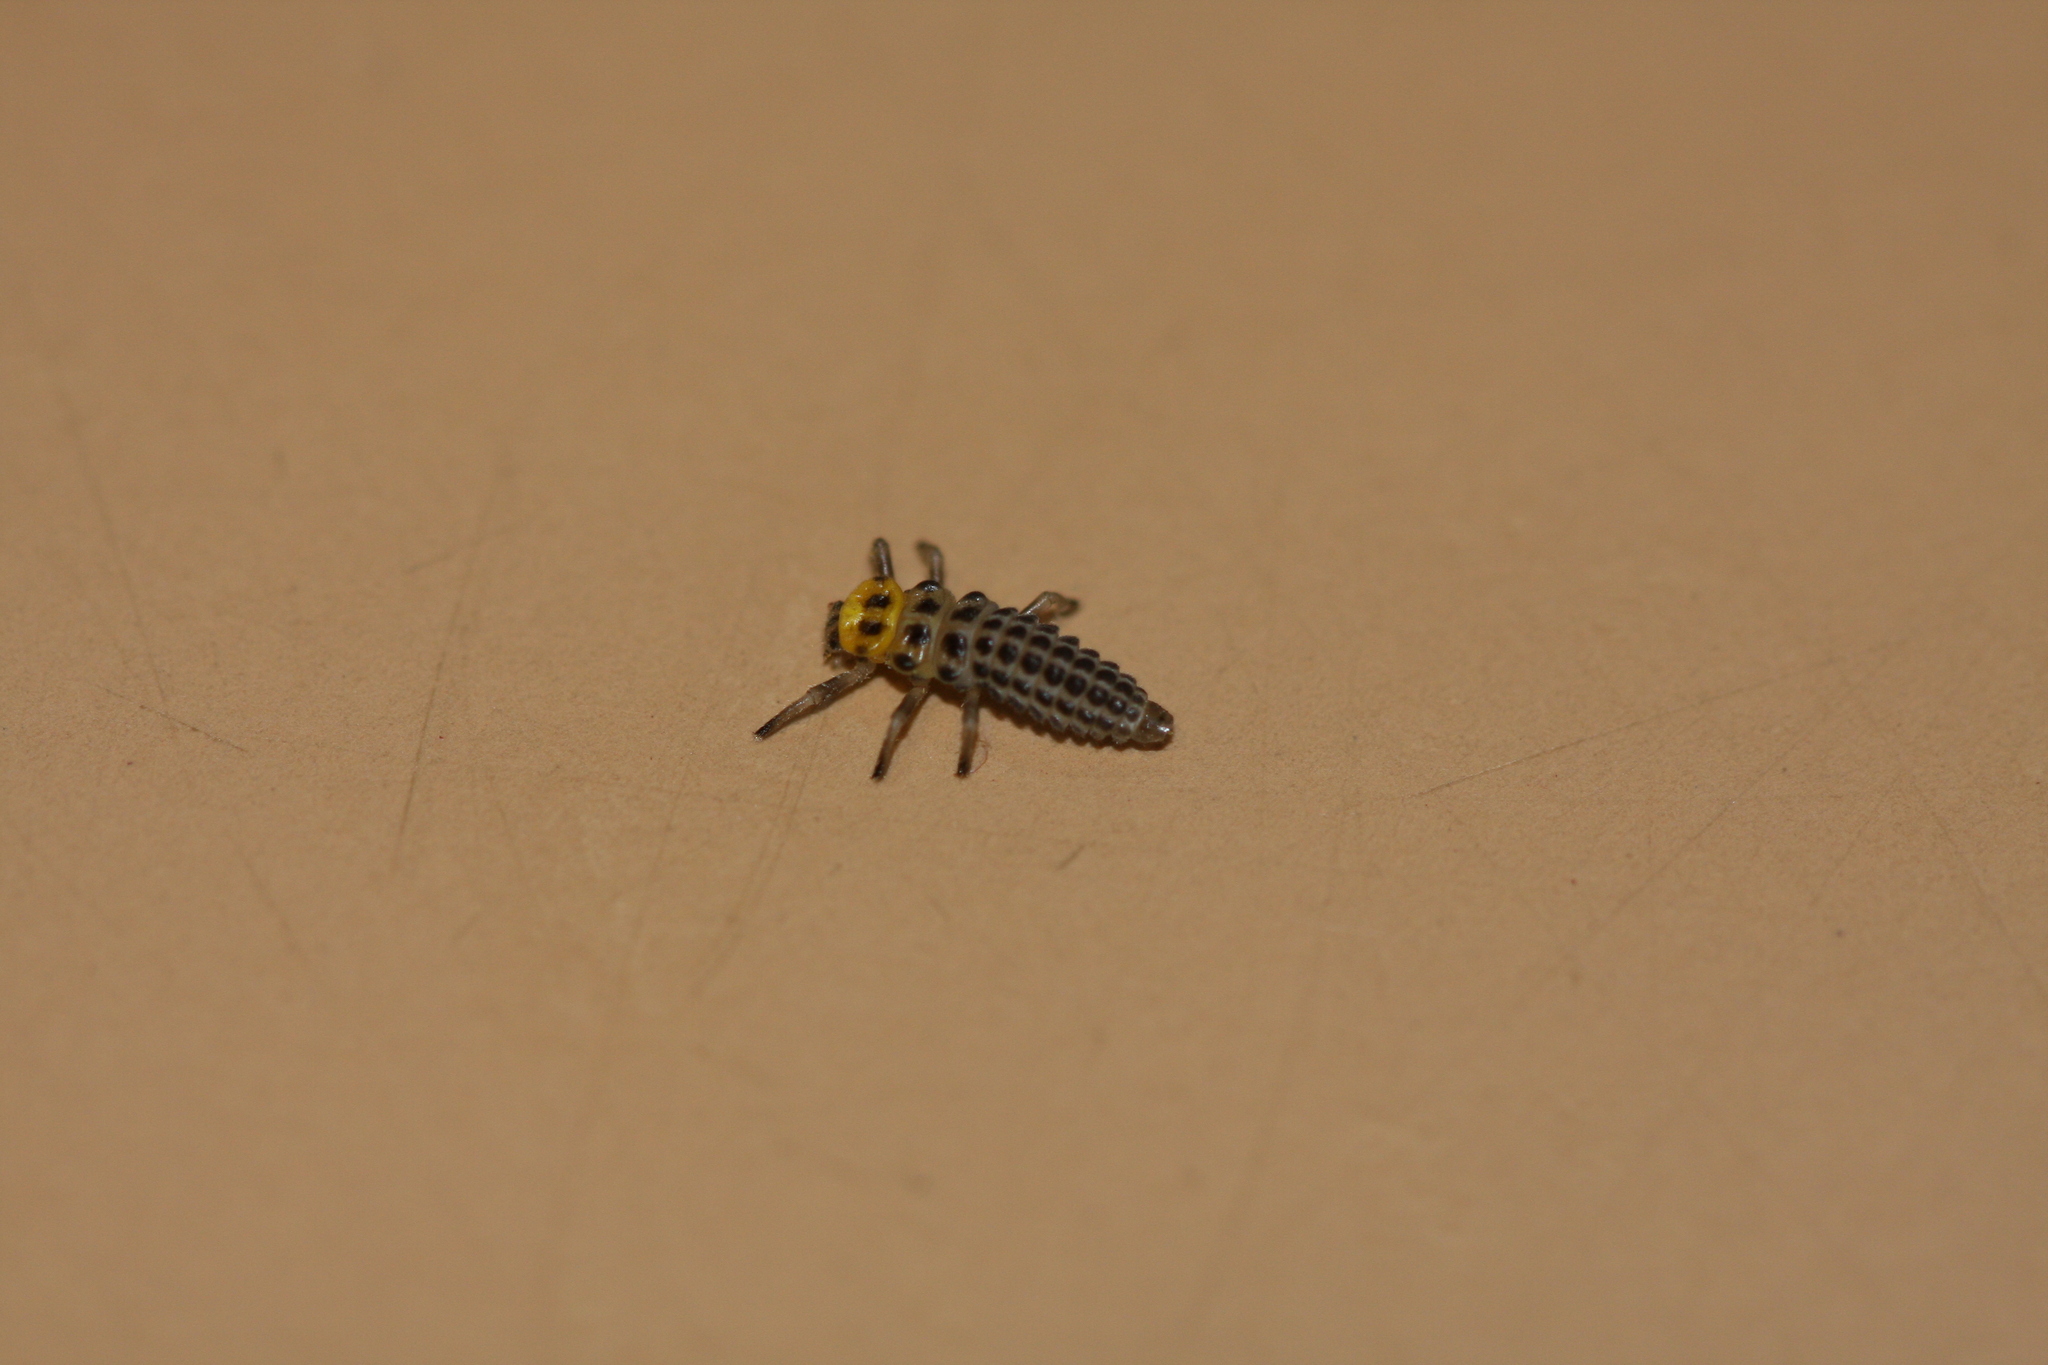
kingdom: Animalia
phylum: Arthropoda
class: Insecta
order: Coleoptera
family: Coccinellidae
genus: Illeis
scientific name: Illeis galbula
